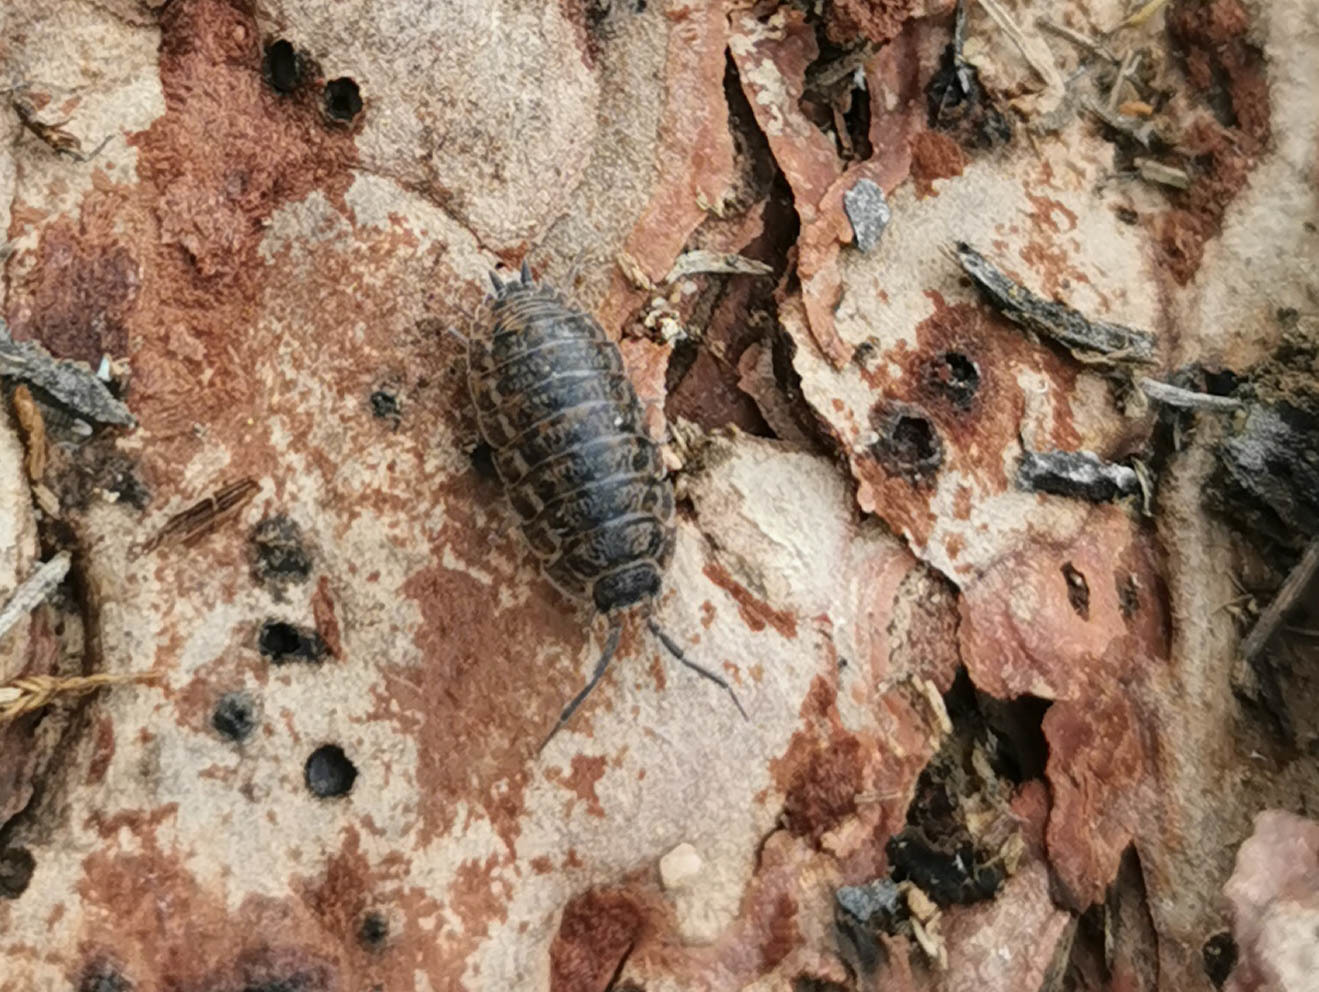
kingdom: Animalia
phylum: Arthropoda
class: Malacostraca
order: Isopoda
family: Trachelipodidae
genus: Trachelipus
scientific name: Trachelipus rathkii
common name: Isopod
